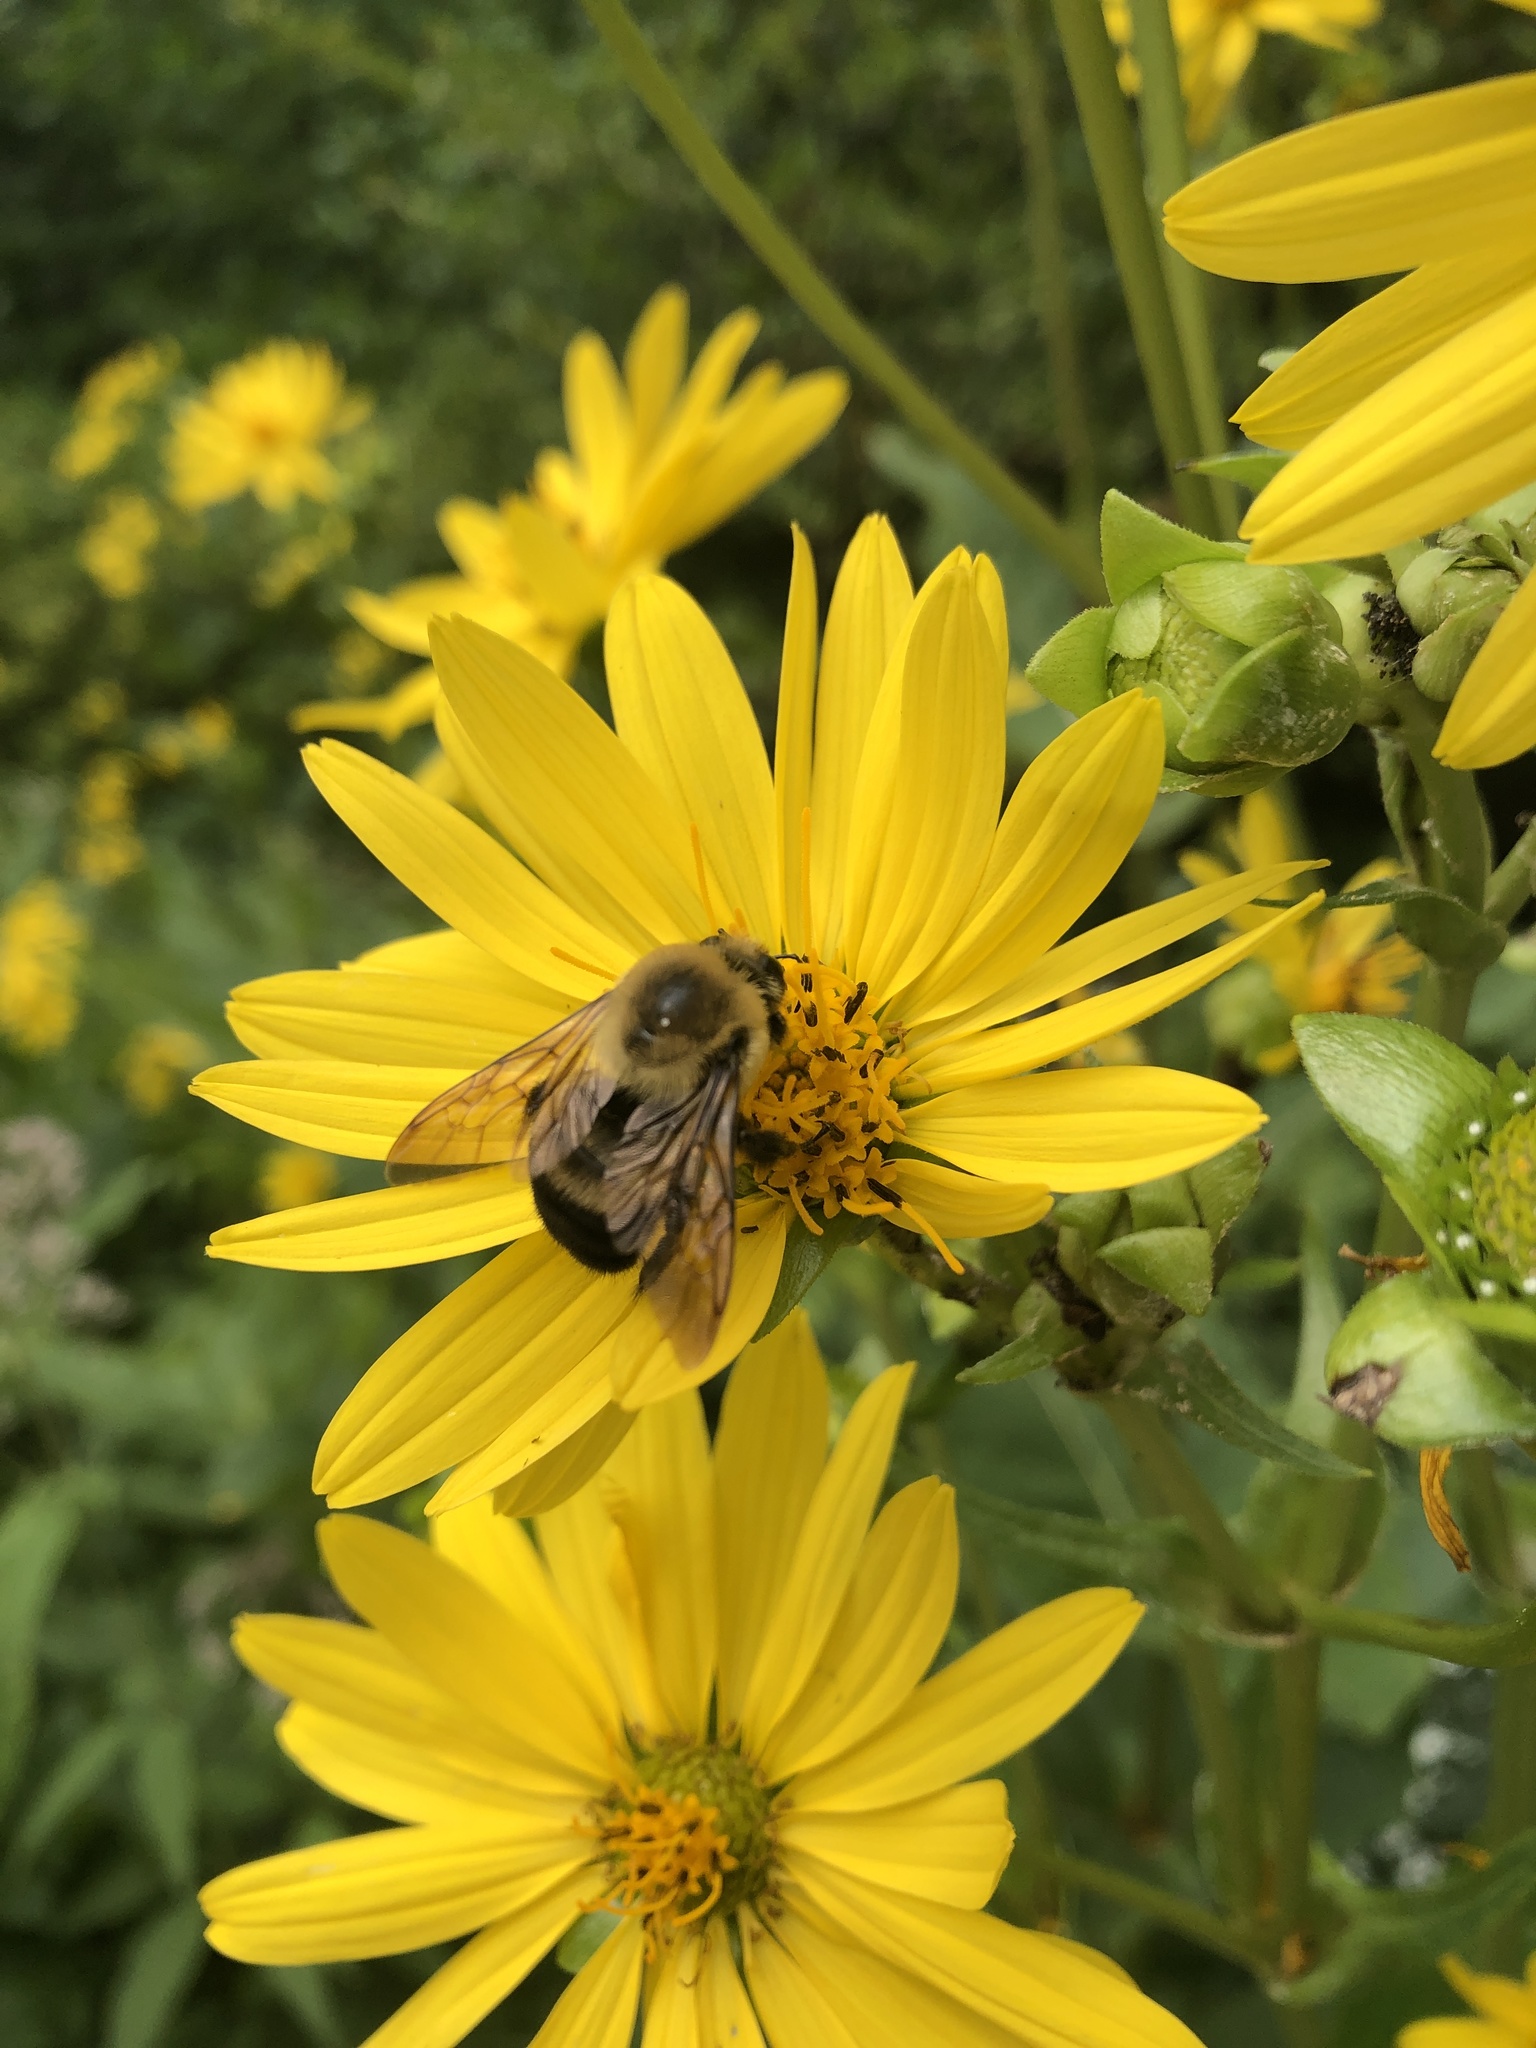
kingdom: Animalia
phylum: Arthropoda
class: Insecta
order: Hymenoptera
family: Apidae
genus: Bombus
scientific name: Bombus griseocollis
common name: Brown-belted bumble bee
